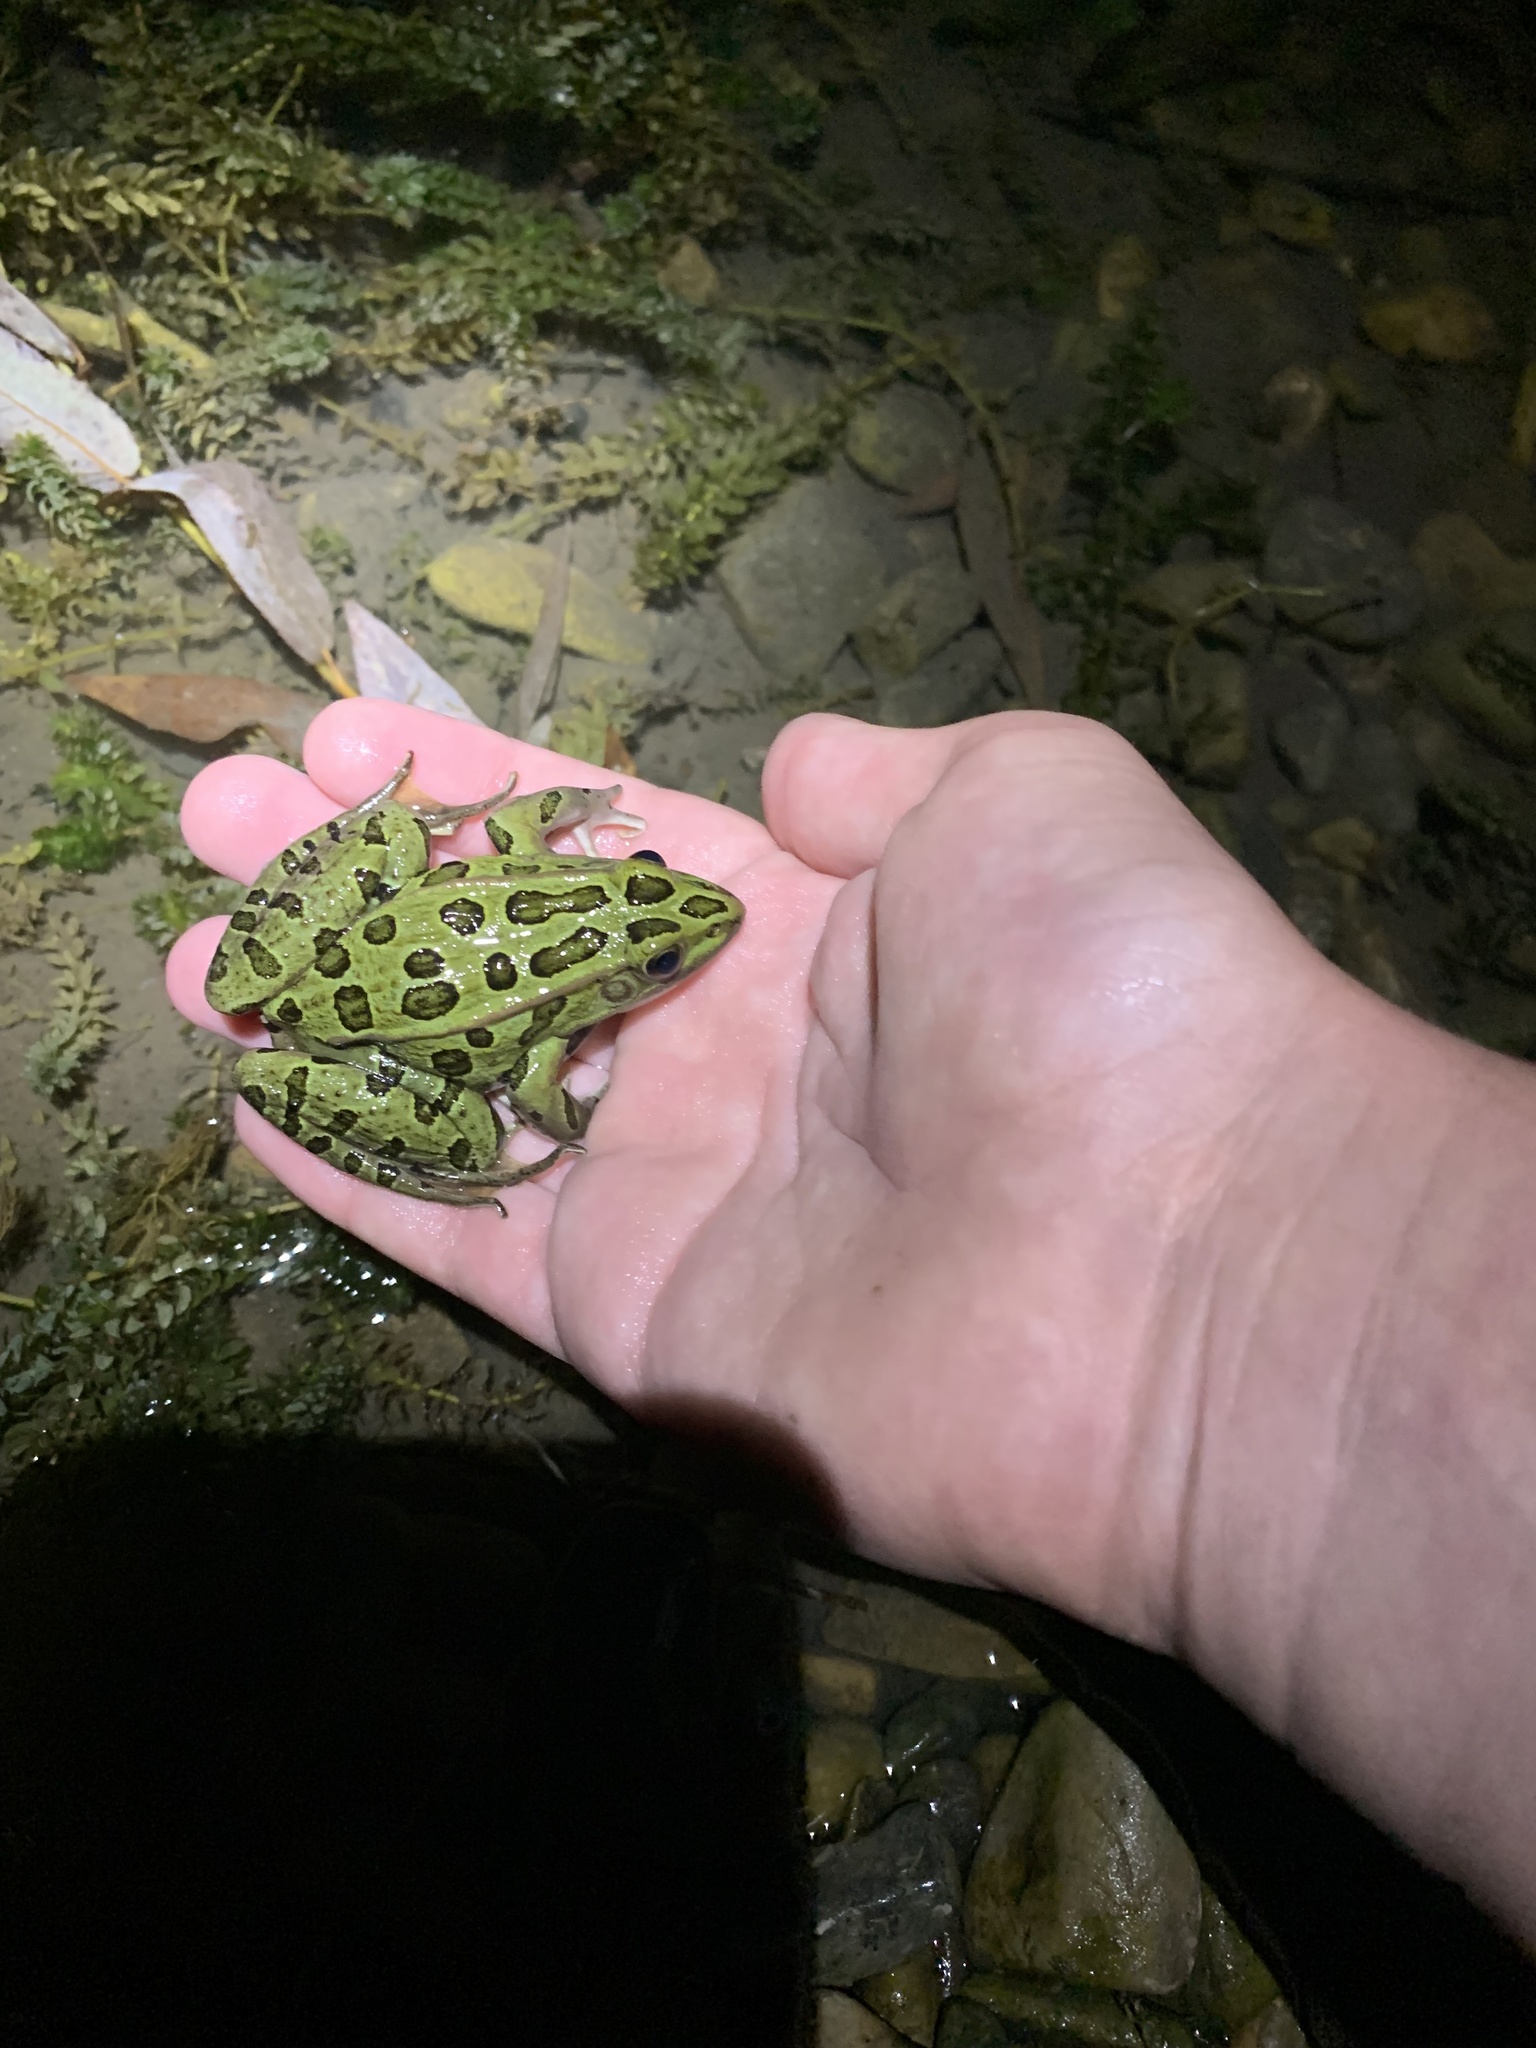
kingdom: Animalia
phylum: Chordata
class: Amphibia
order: Anura
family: Ranidae
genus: Lithobates
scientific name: Lithobates pipiens
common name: Northern leopard frog
